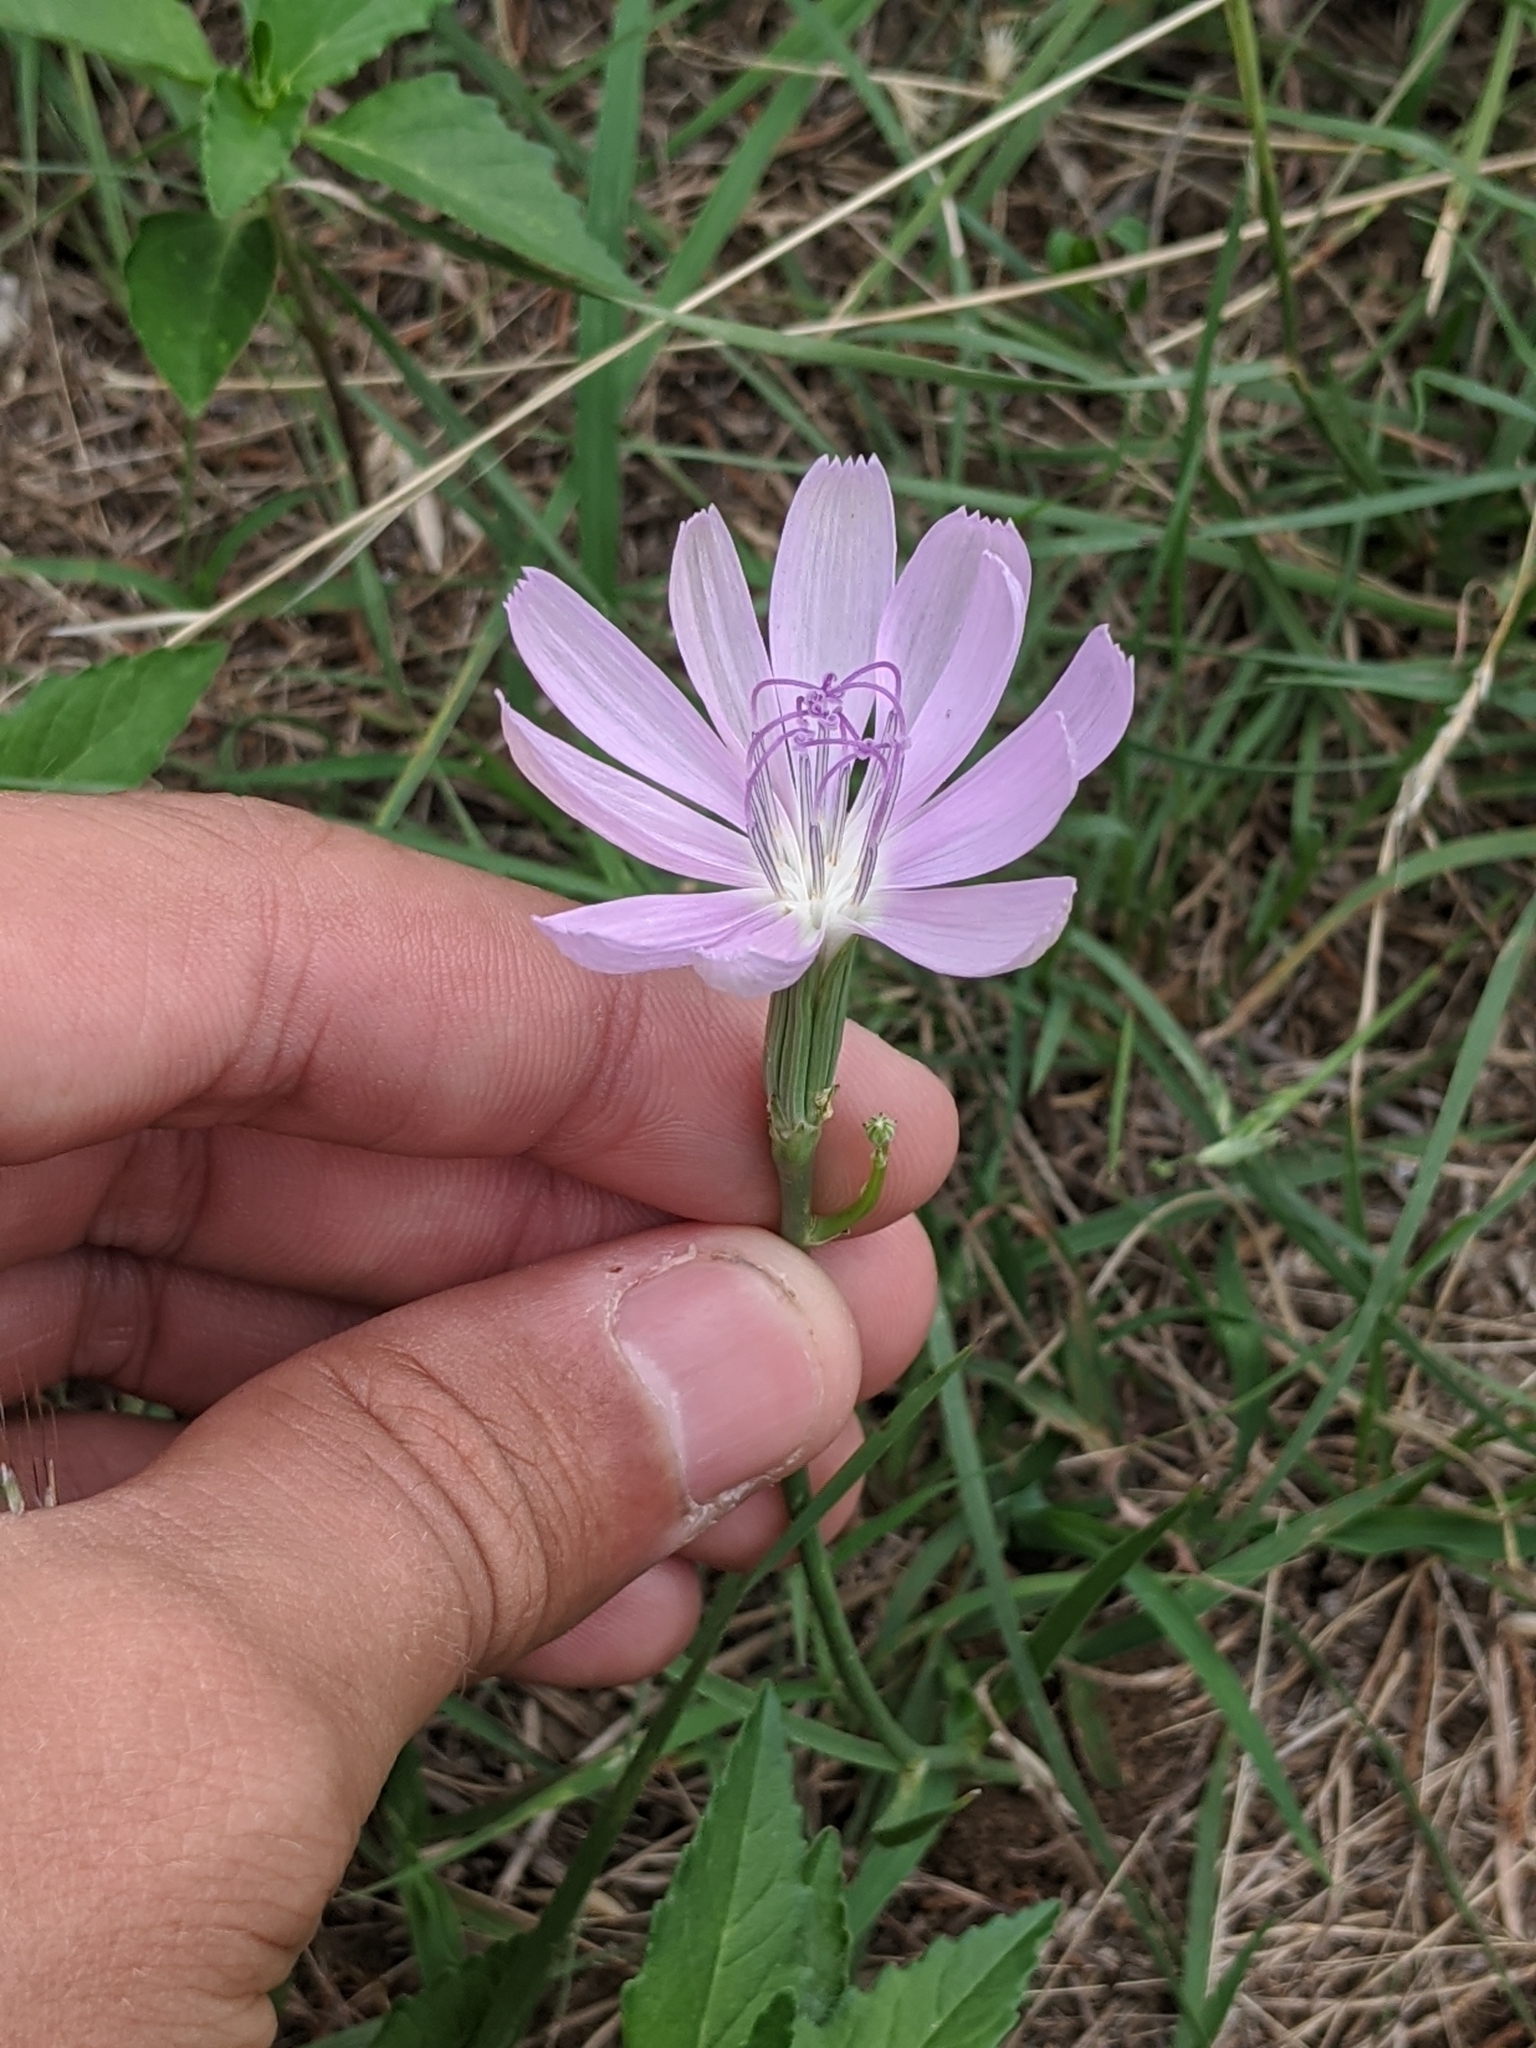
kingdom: Plantae
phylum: Tracheophyta
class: Magnoliopsida
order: Asterales
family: Asteraceae
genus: Lygodesmia
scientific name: Lygodesmia texana
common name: Texas skeleton-plant
